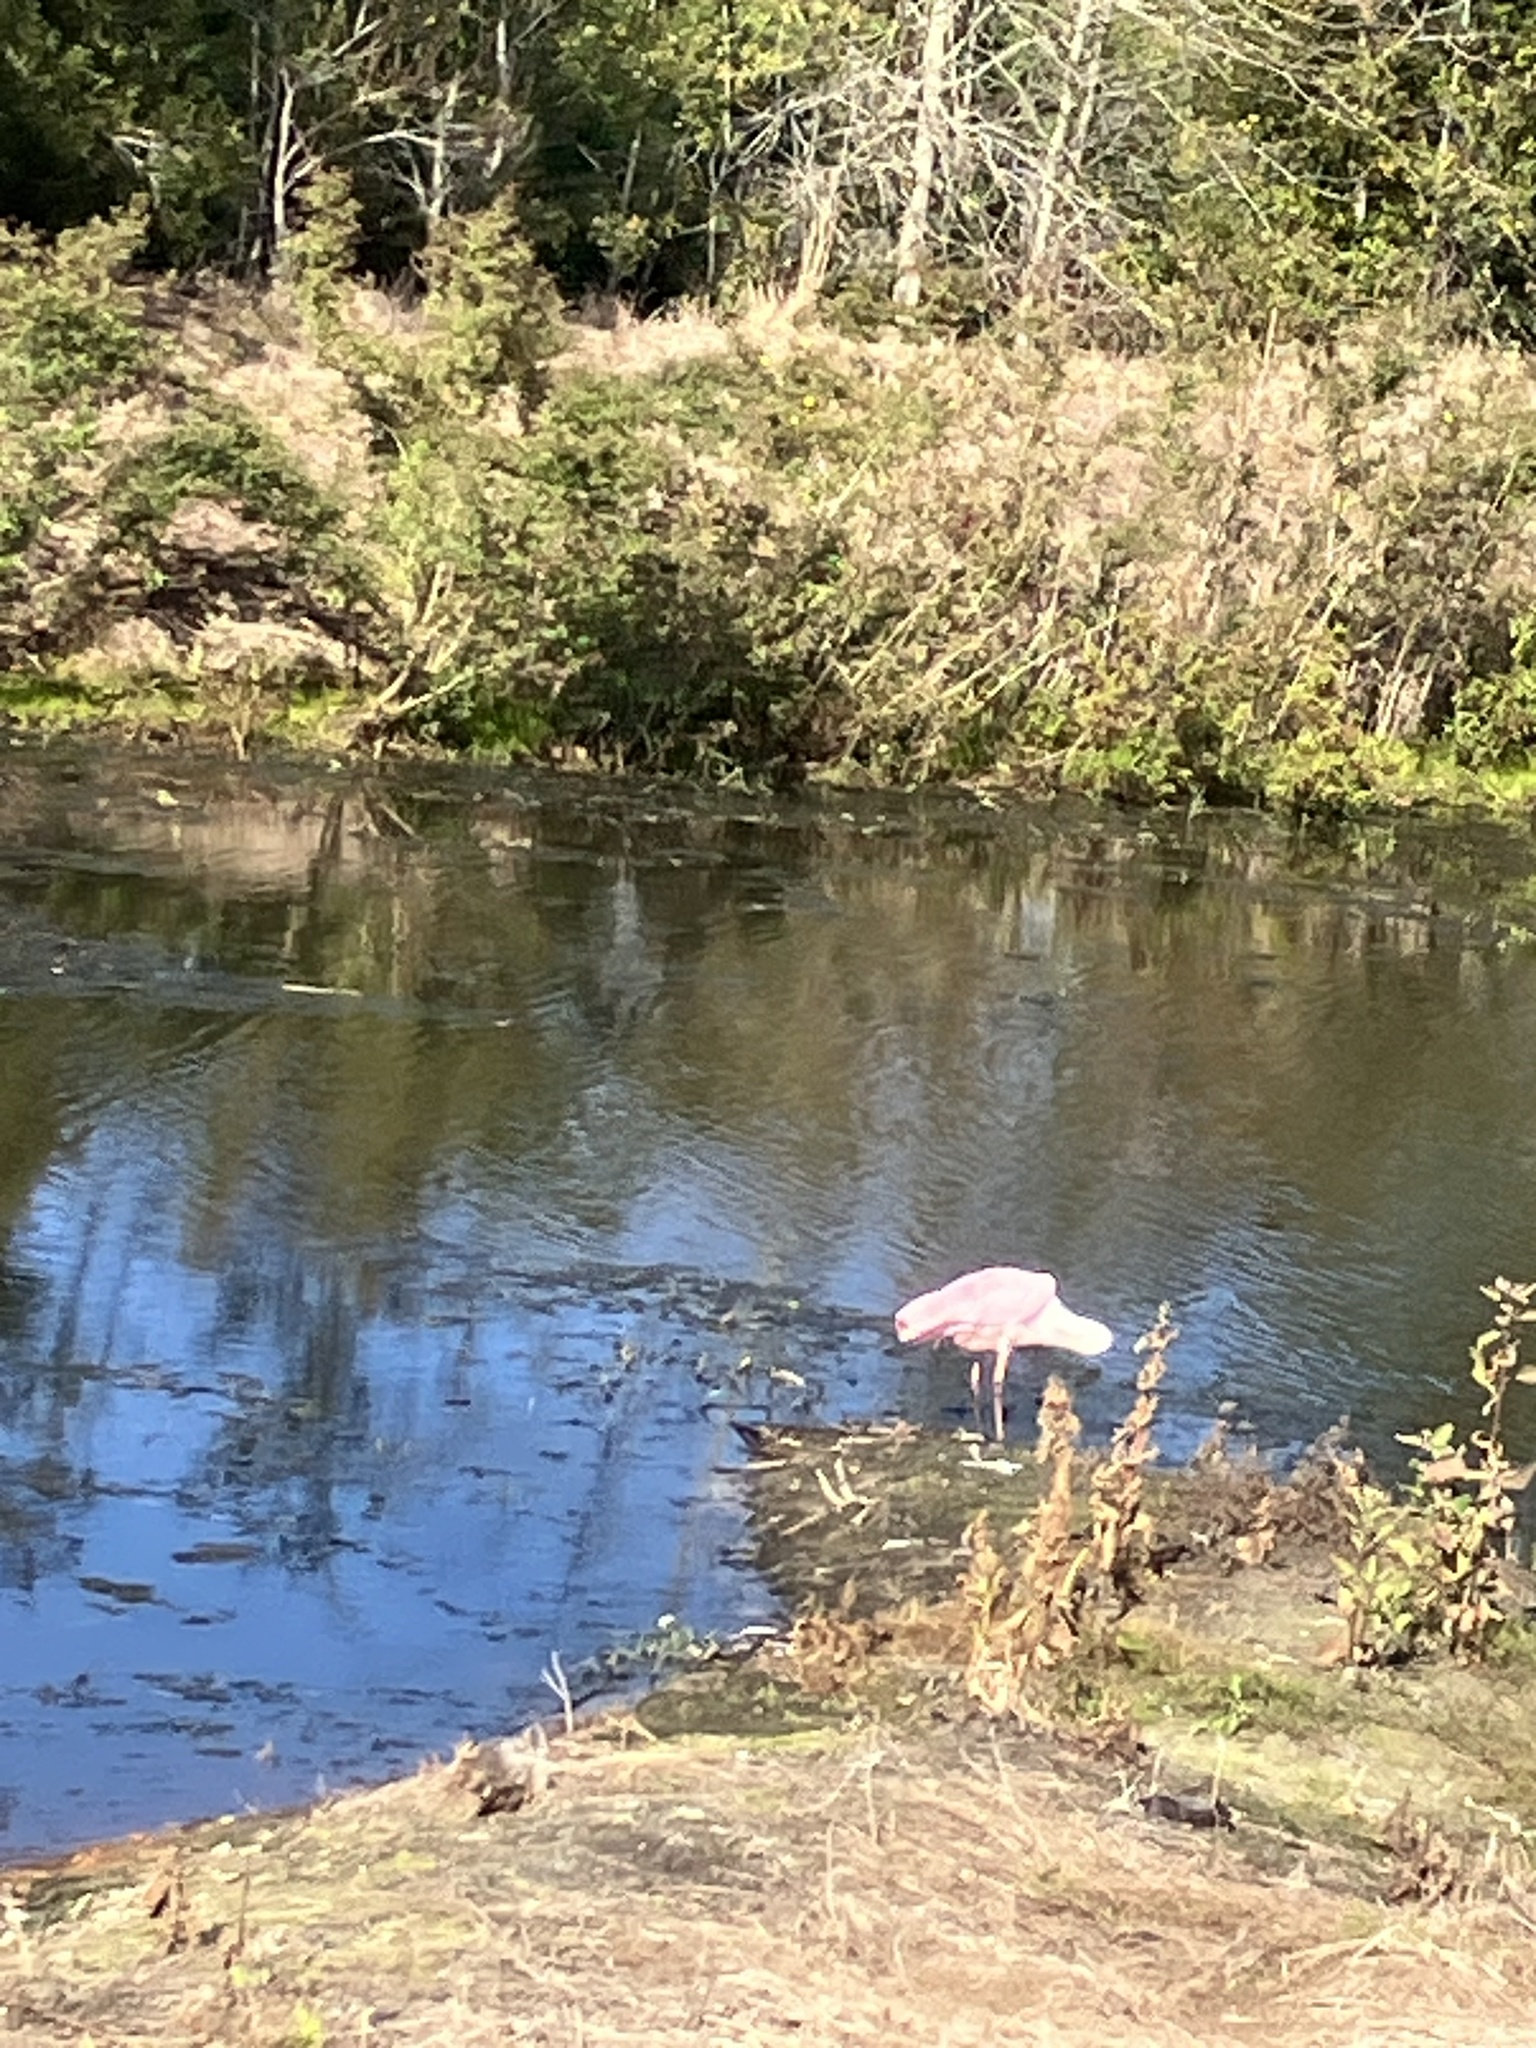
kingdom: Animalia
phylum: Chordata
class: Aves
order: Pelecaniformes
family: Threskiornithidae
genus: Platalea
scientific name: Platalea ajaja
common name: Roseate spoonbill
